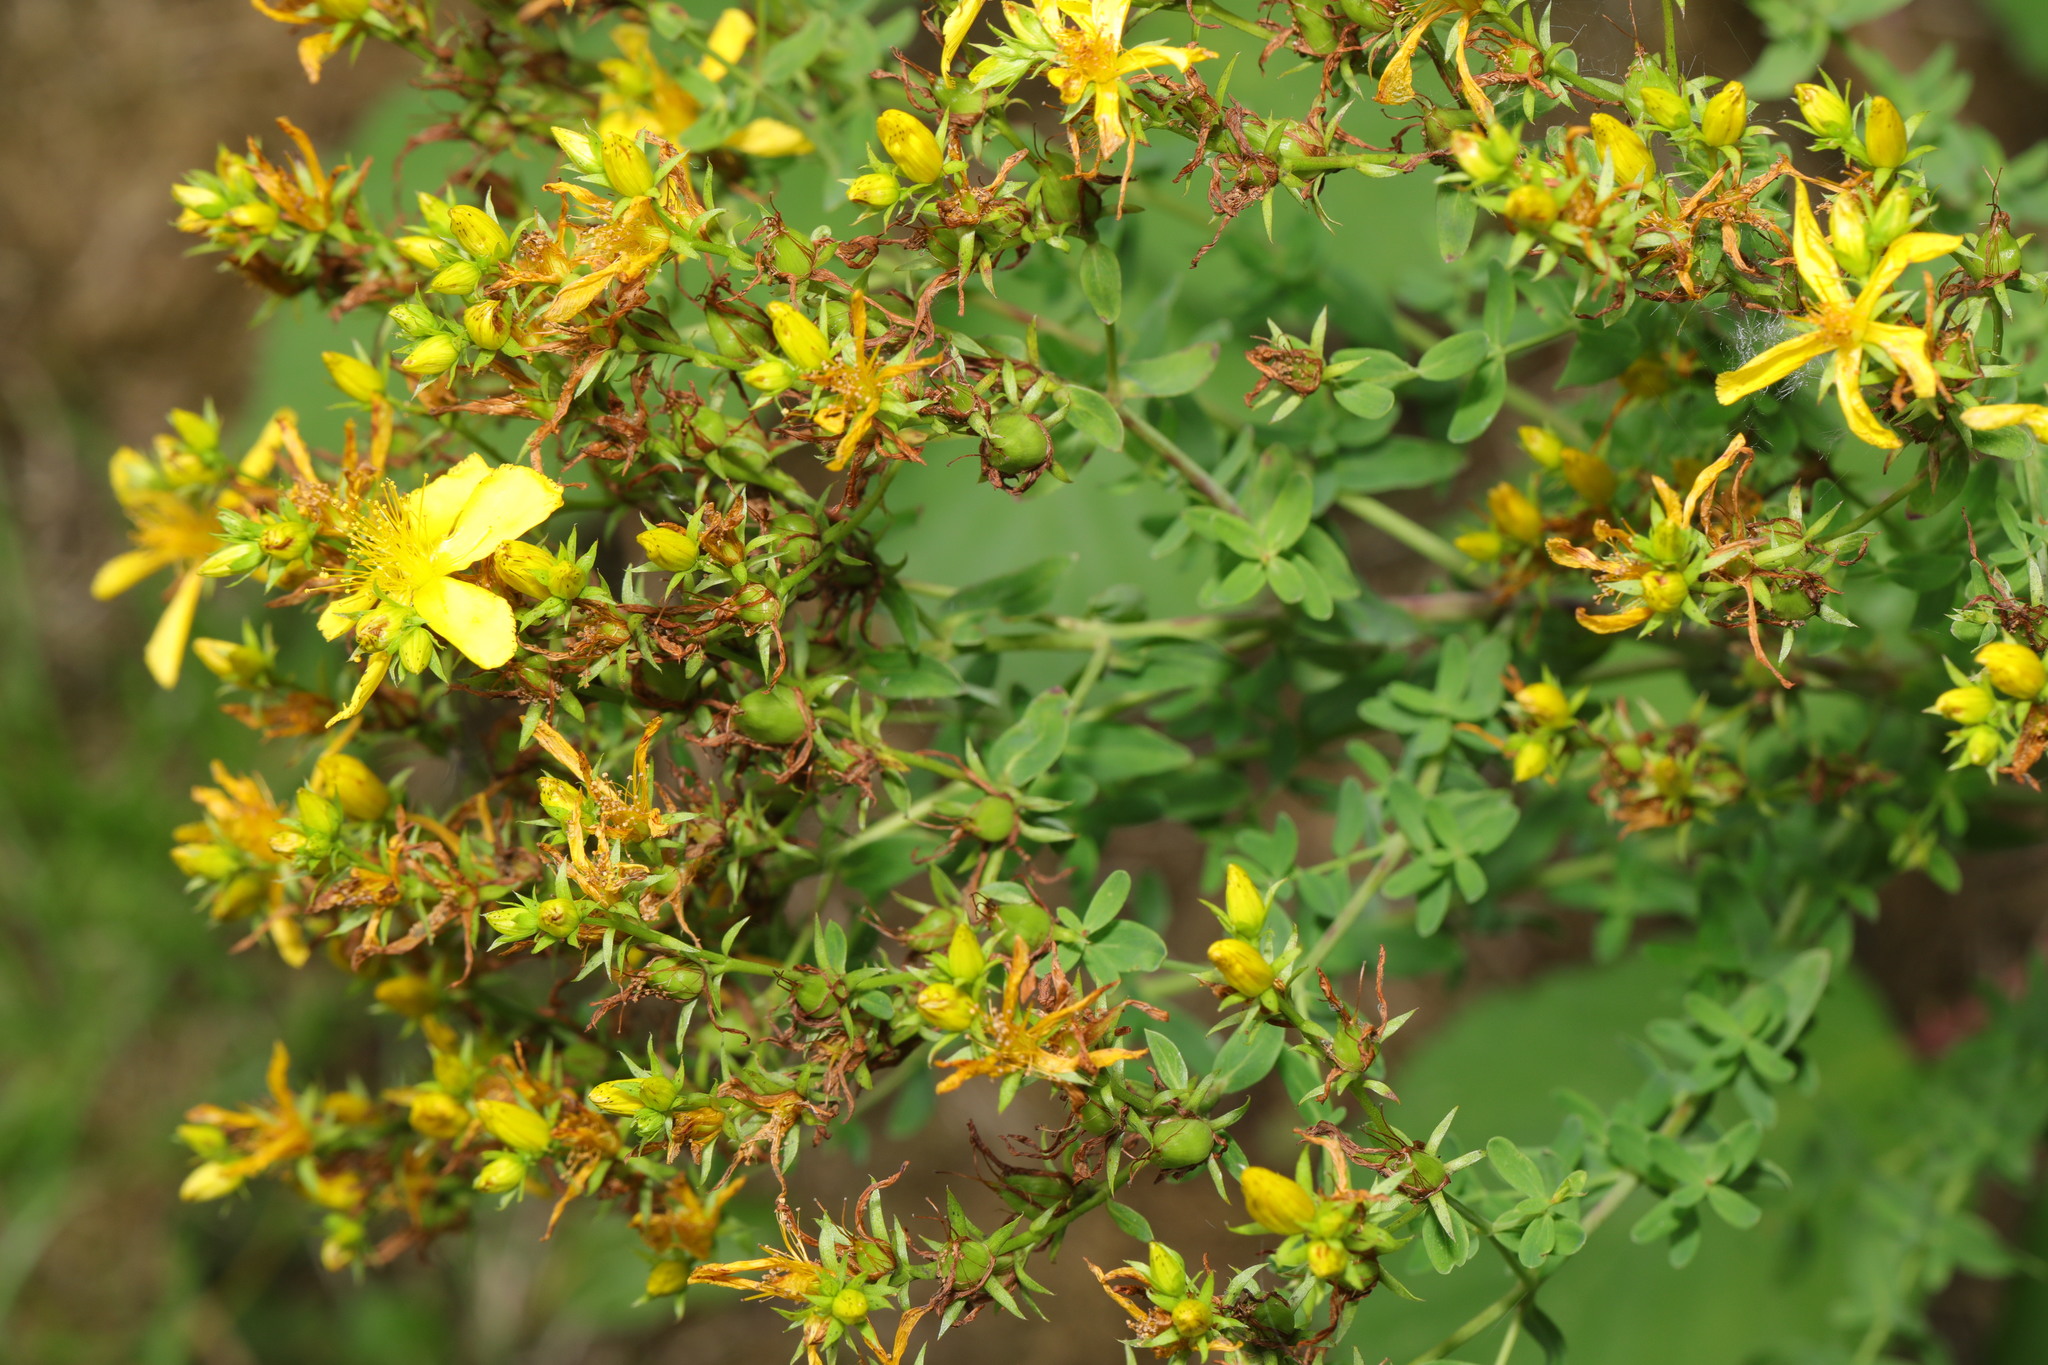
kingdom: Plantae
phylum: Tracheophyta
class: Magnoliopsida
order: Malpighiales
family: Hypericaceae
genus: Hypericum
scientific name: Hypericum perforatum
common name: Common st. johnswort
